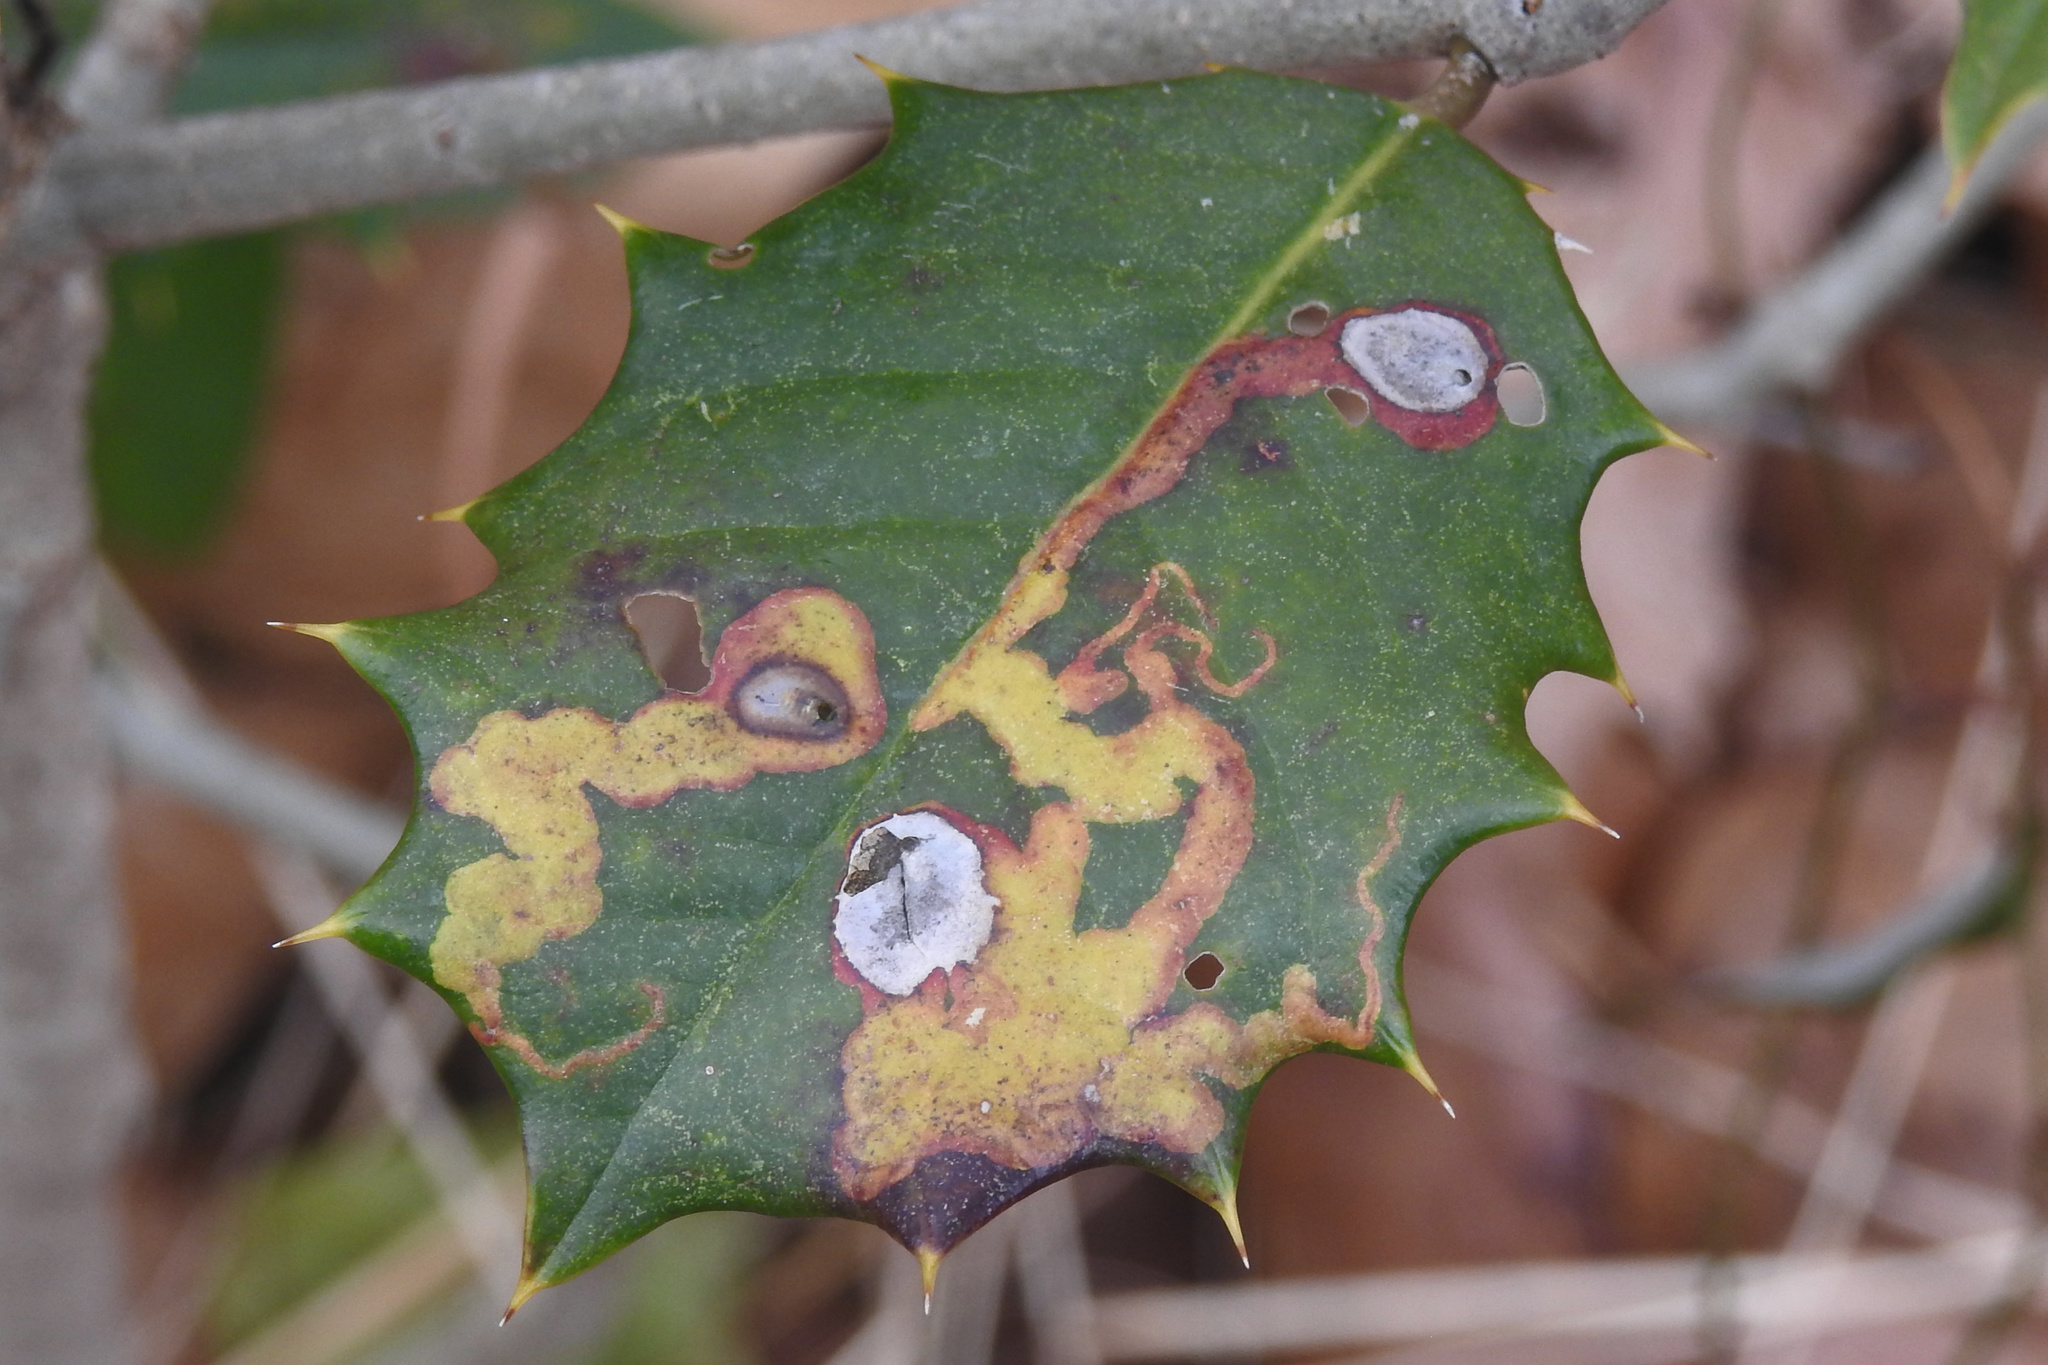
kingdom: Animalia
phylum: Arthropoda
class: Insecta
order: Diptera
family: Agromyzidae
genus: Phytomyza
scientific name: Phytomyza ilicicola
